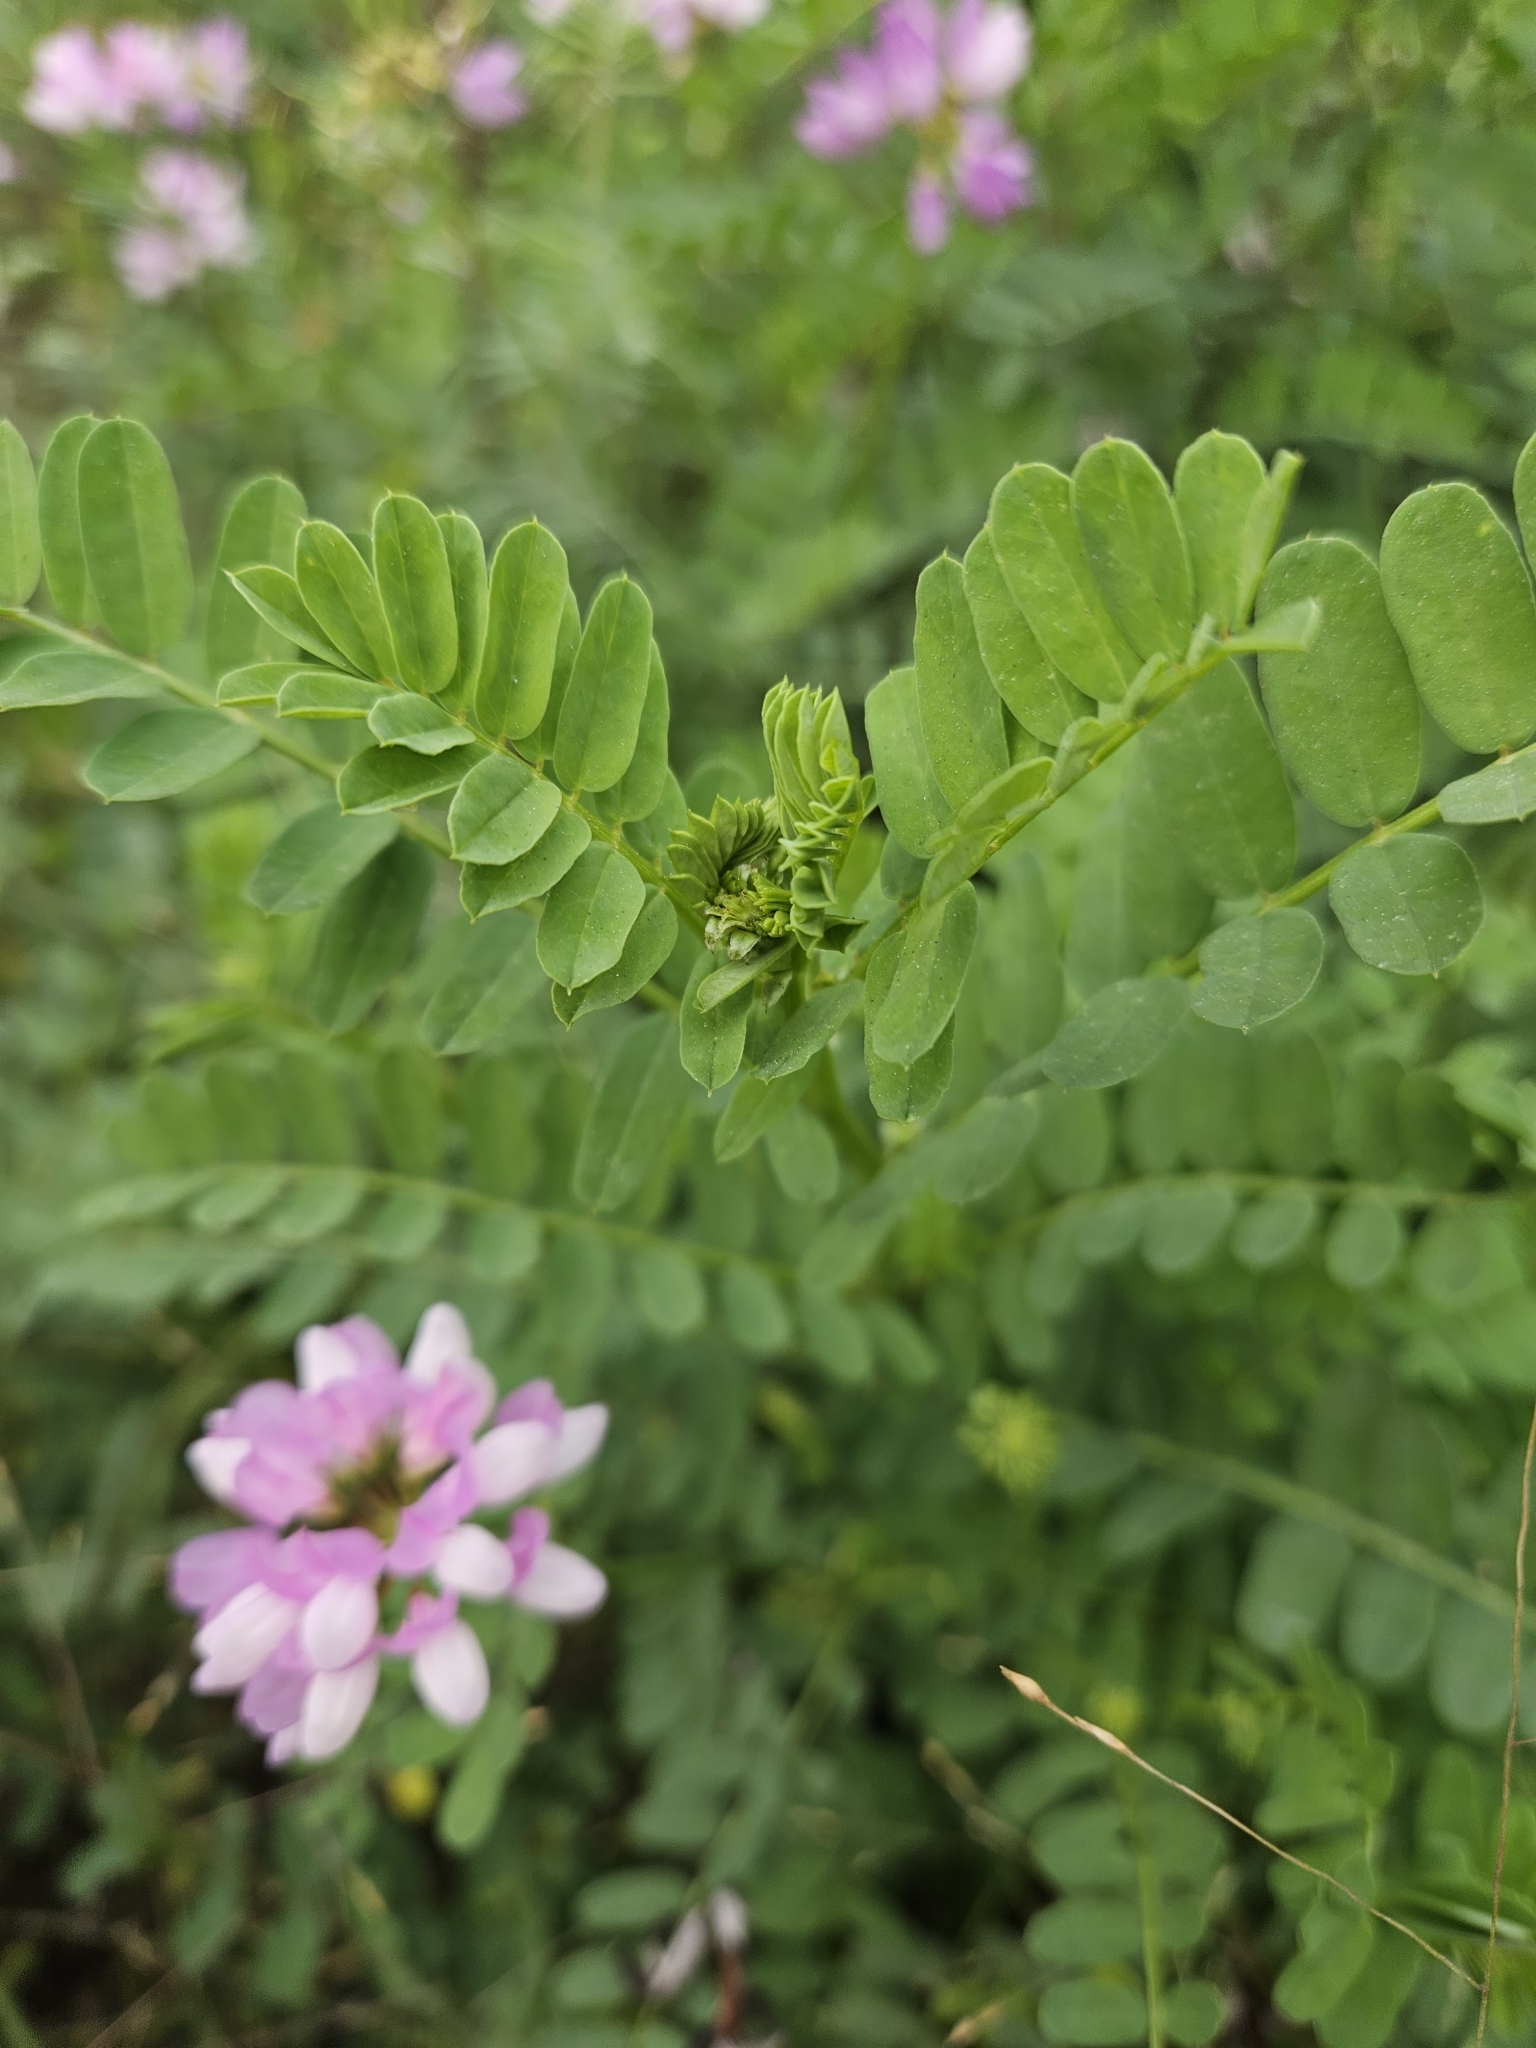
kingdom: Plantae
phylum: Tracheophyta
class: Magnoliopsida
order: Fabales
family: Fabaceae
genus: Coronilla
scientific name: Coronilla varia
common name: Crownvetch
